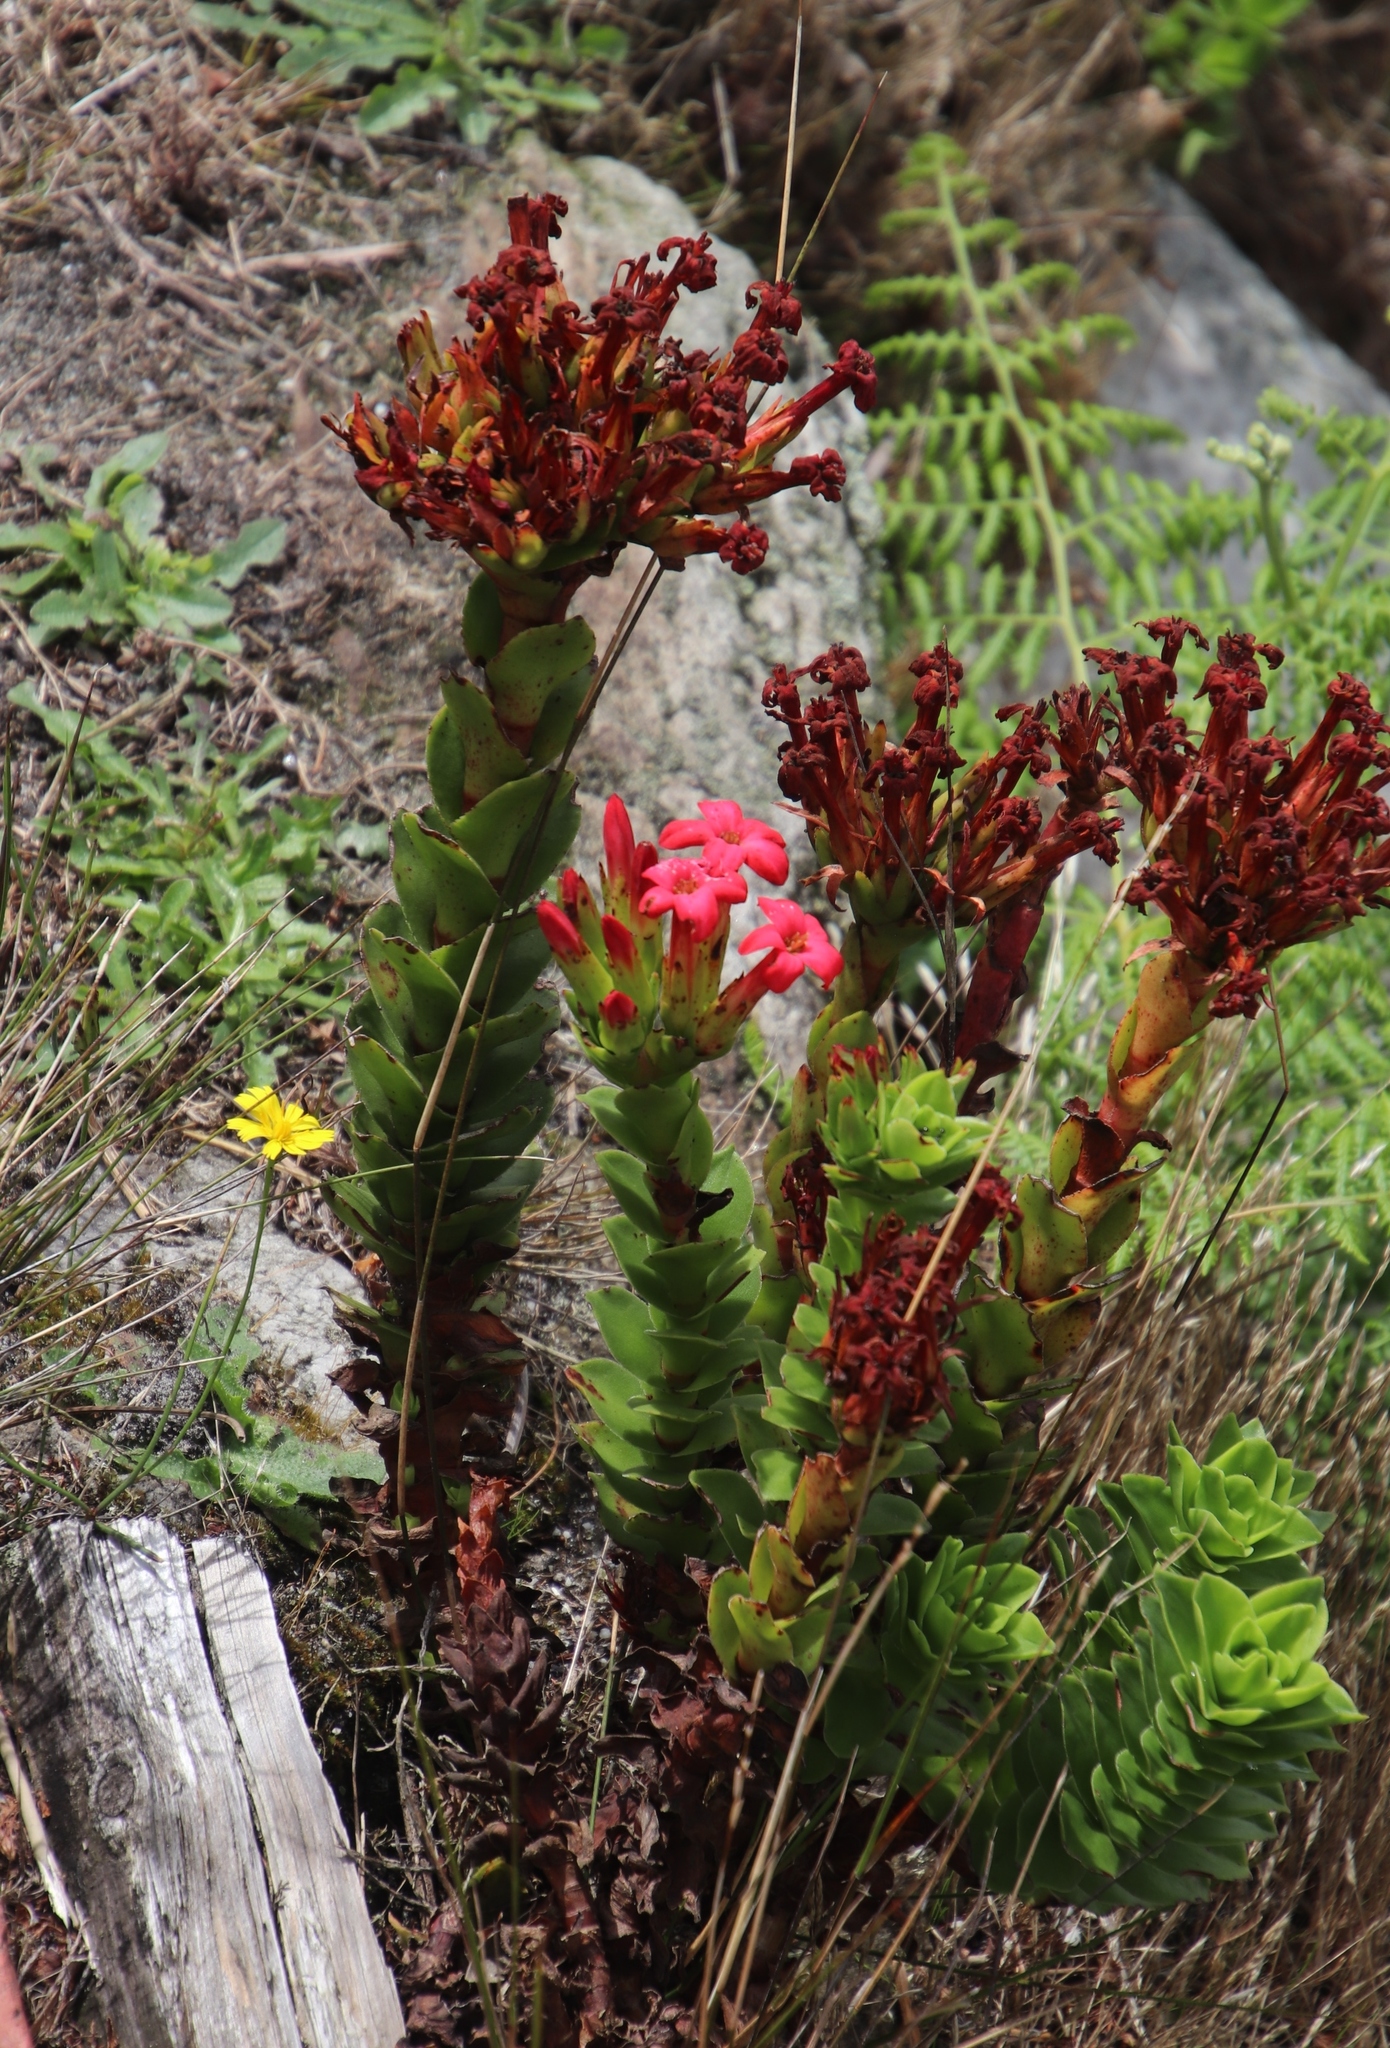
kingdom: Plantae
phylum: Tracheophyta
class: Magnoliopsida
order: Saxifragales
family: Crassulaceae
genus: Crassula
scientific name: Crassula coccinea
